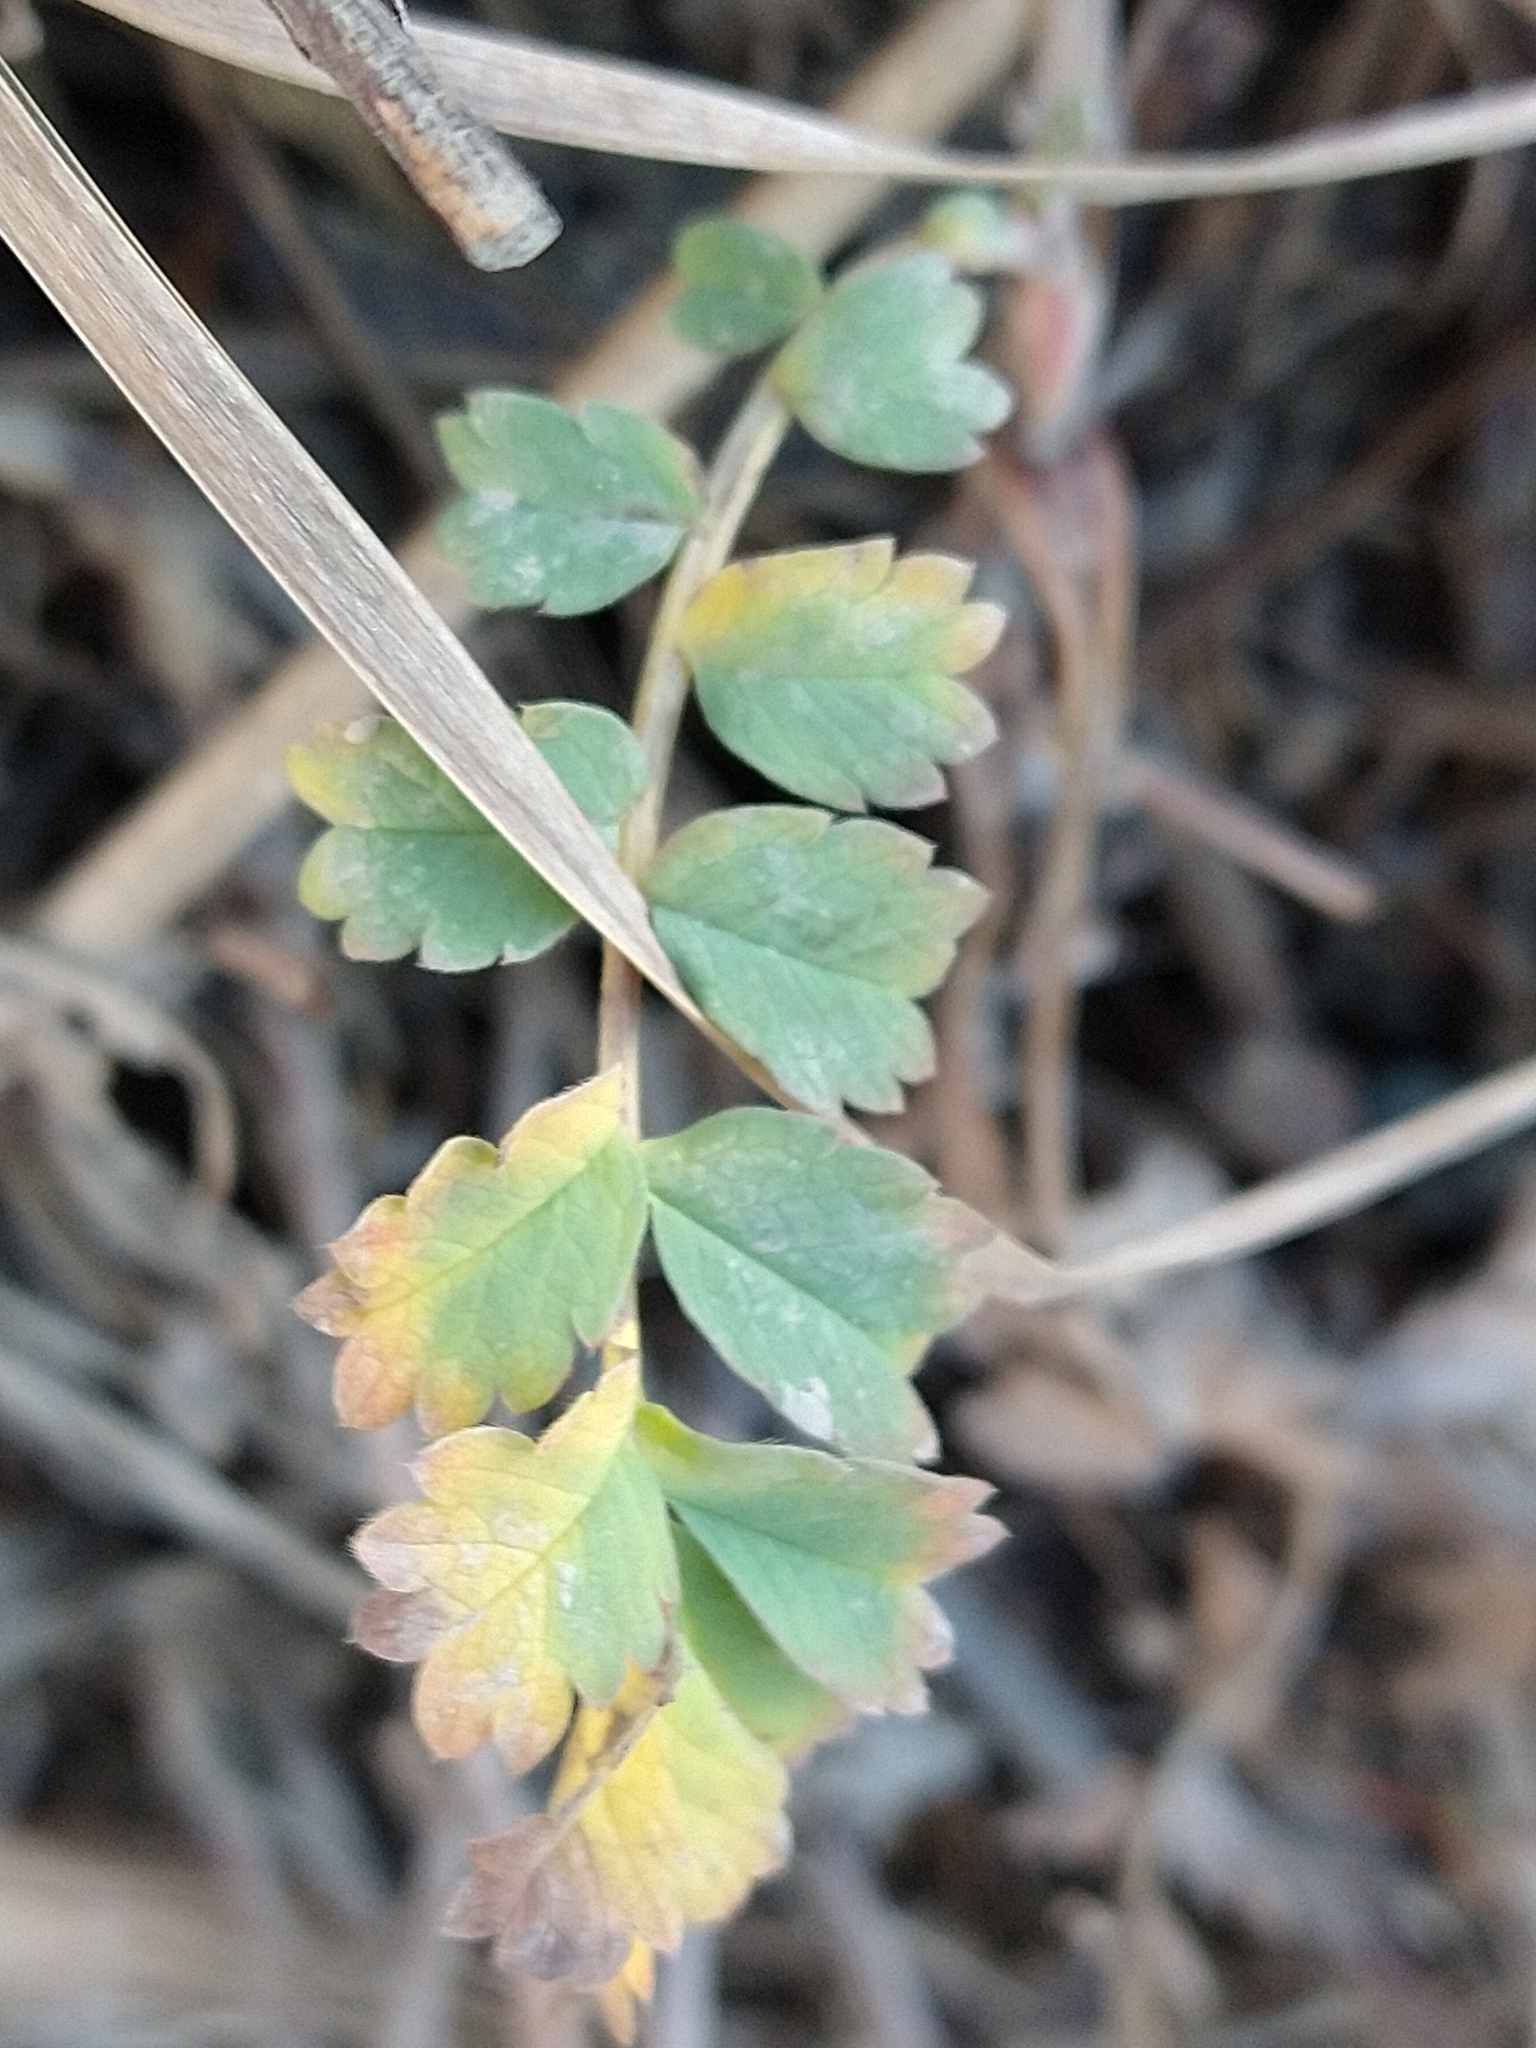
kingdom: Plantae
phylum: Tracheophyta
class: Magnoliopsida
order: Rosales
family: Rosaceae
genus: Acaena
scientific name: Acaena magellanica
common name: New zealand burr
